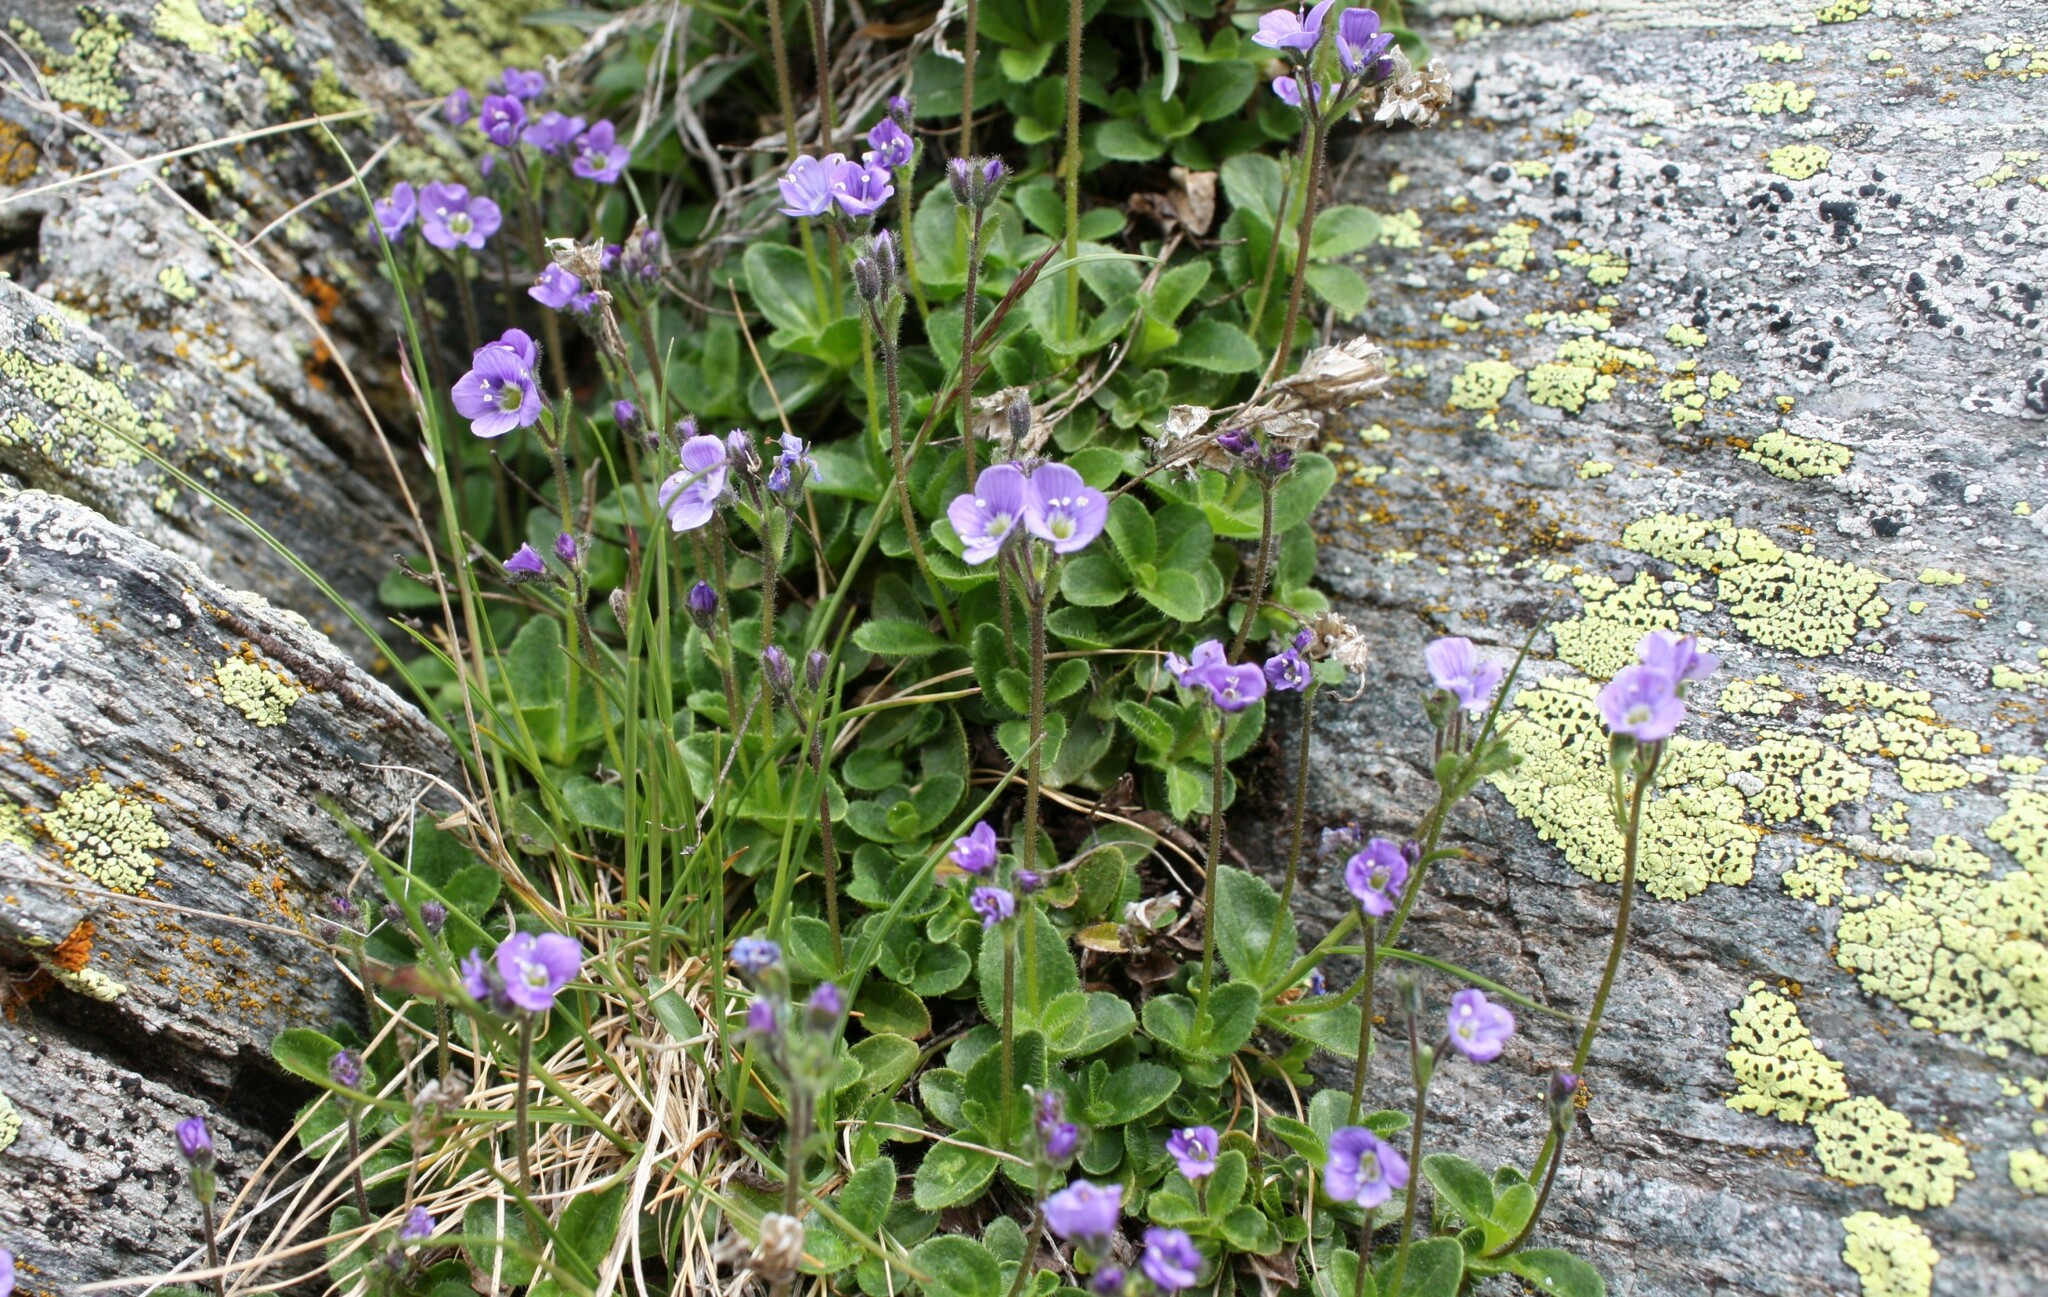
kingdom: Plantae
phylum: Tracheophyta
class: Magnoliopsida
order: Lamiales
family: Plantaginaceae
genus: Veronica
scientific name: Veronica aphylla
